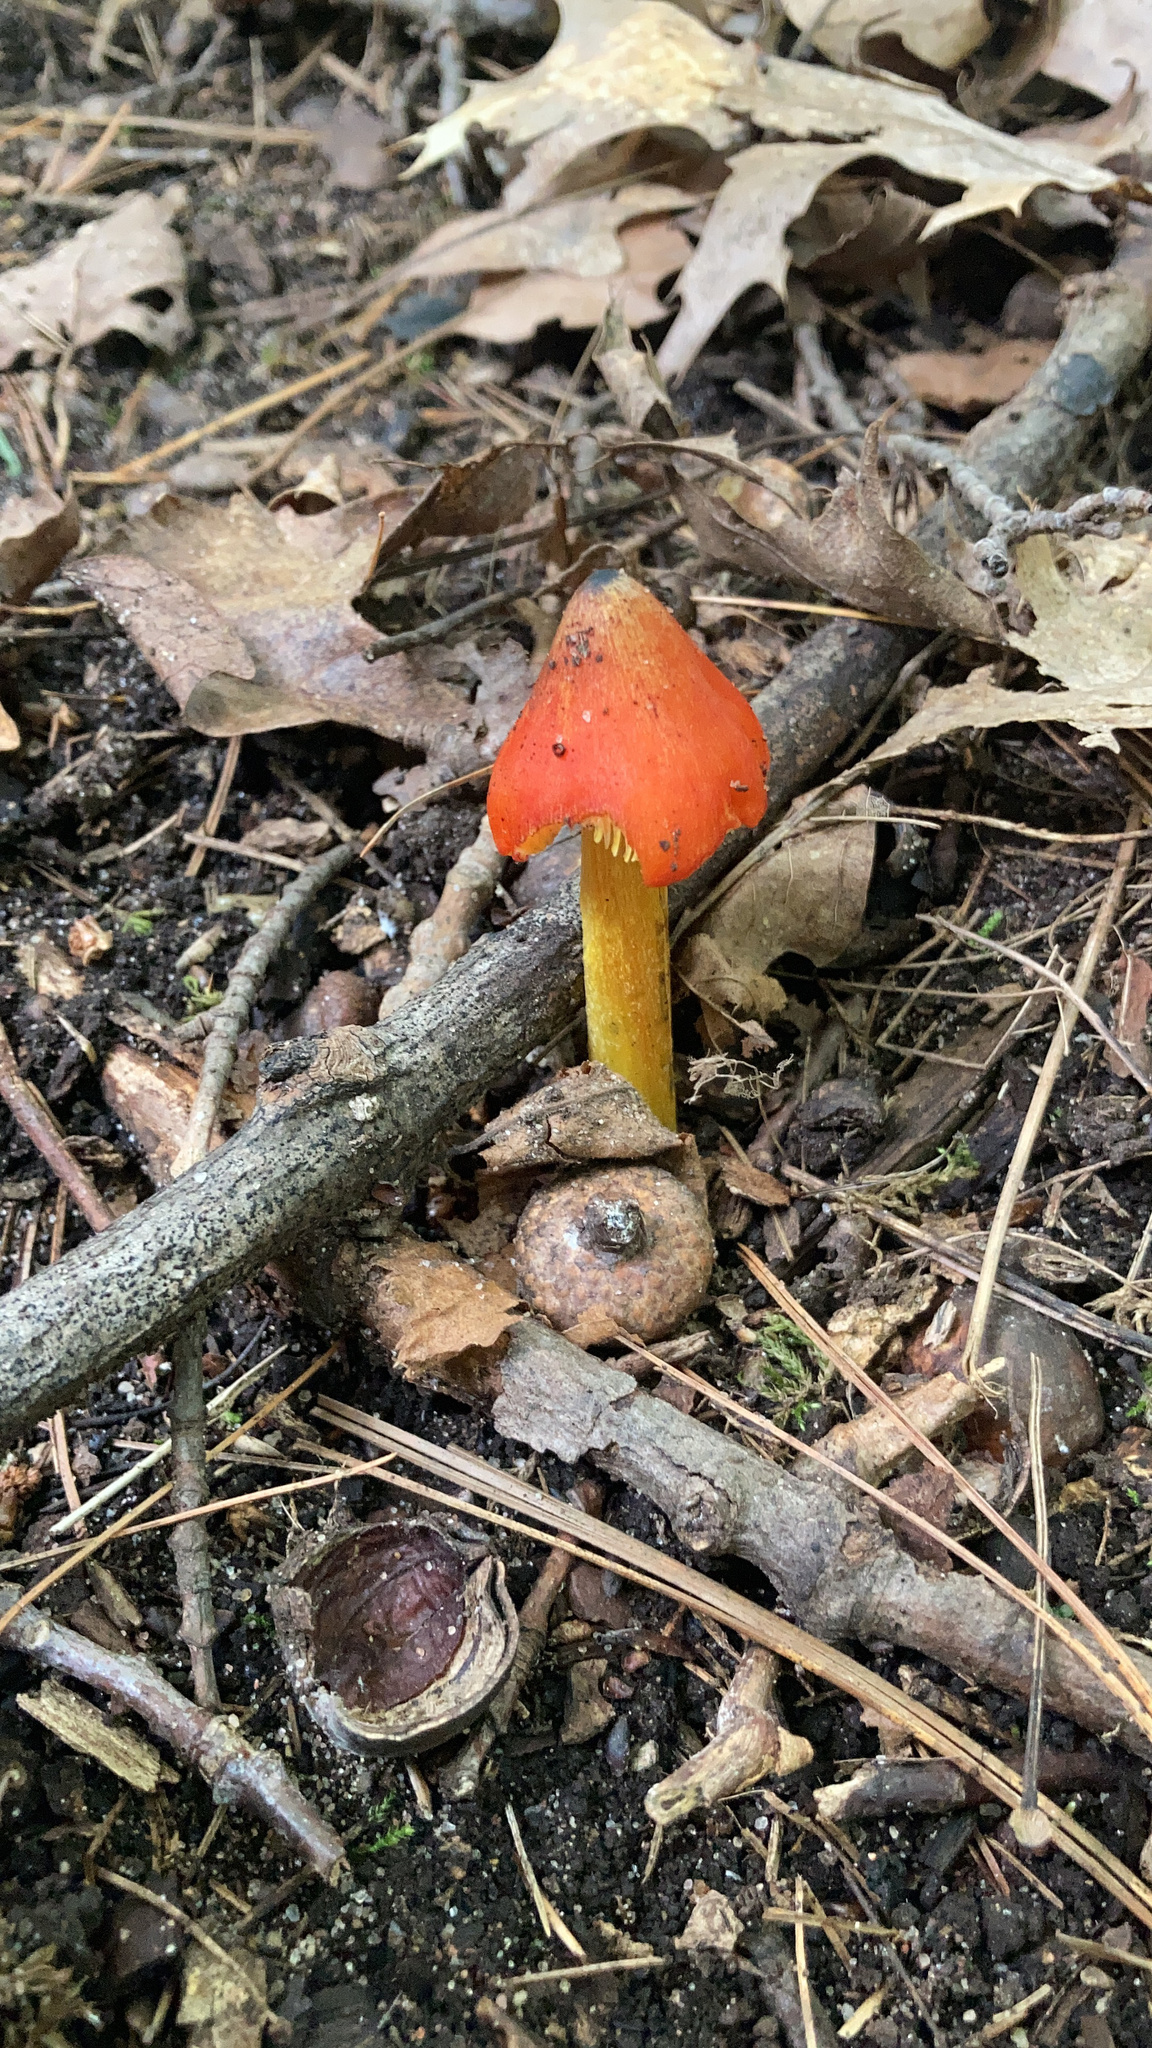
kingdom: Fungi
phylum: Basidiomycota
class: Agaricomycetes
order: Agaricales
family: Hygrophoraceae
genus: Hygrocybe
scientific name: Hygrocybe conica
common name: Blackening wax-cap
